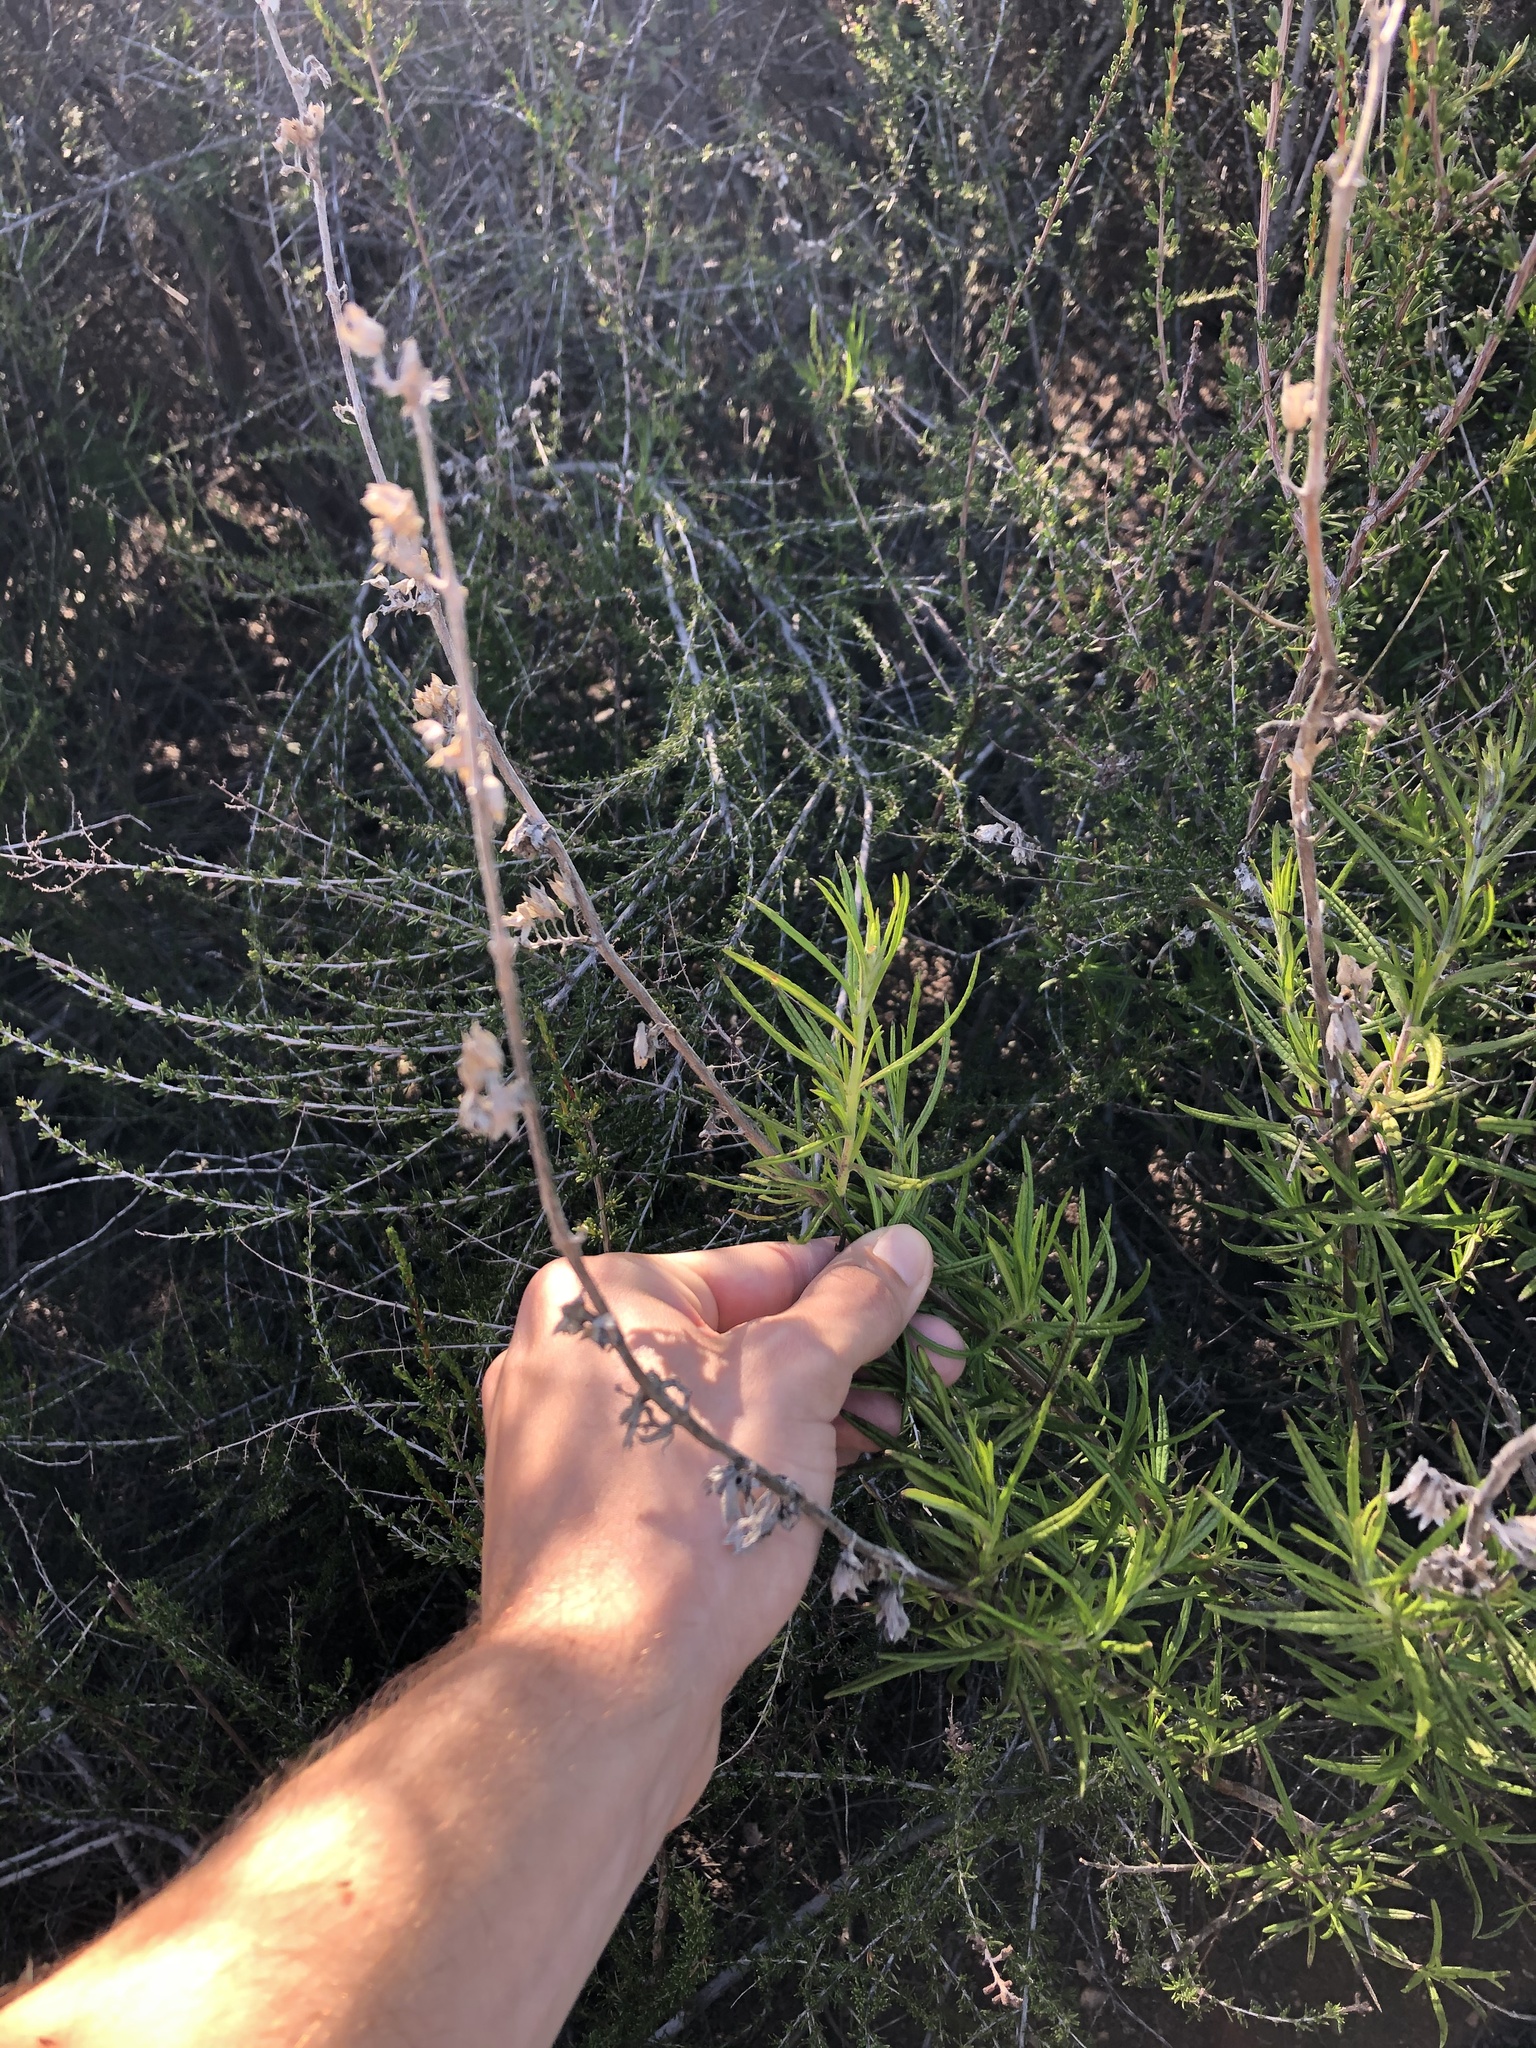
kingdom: Plantae
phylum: Tracheophyta
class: Magnoliopsida
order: Lamiales
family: Lamiaceae
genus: Trichostema
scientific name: Trichostema lanatum
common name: Woolly bluecurls
